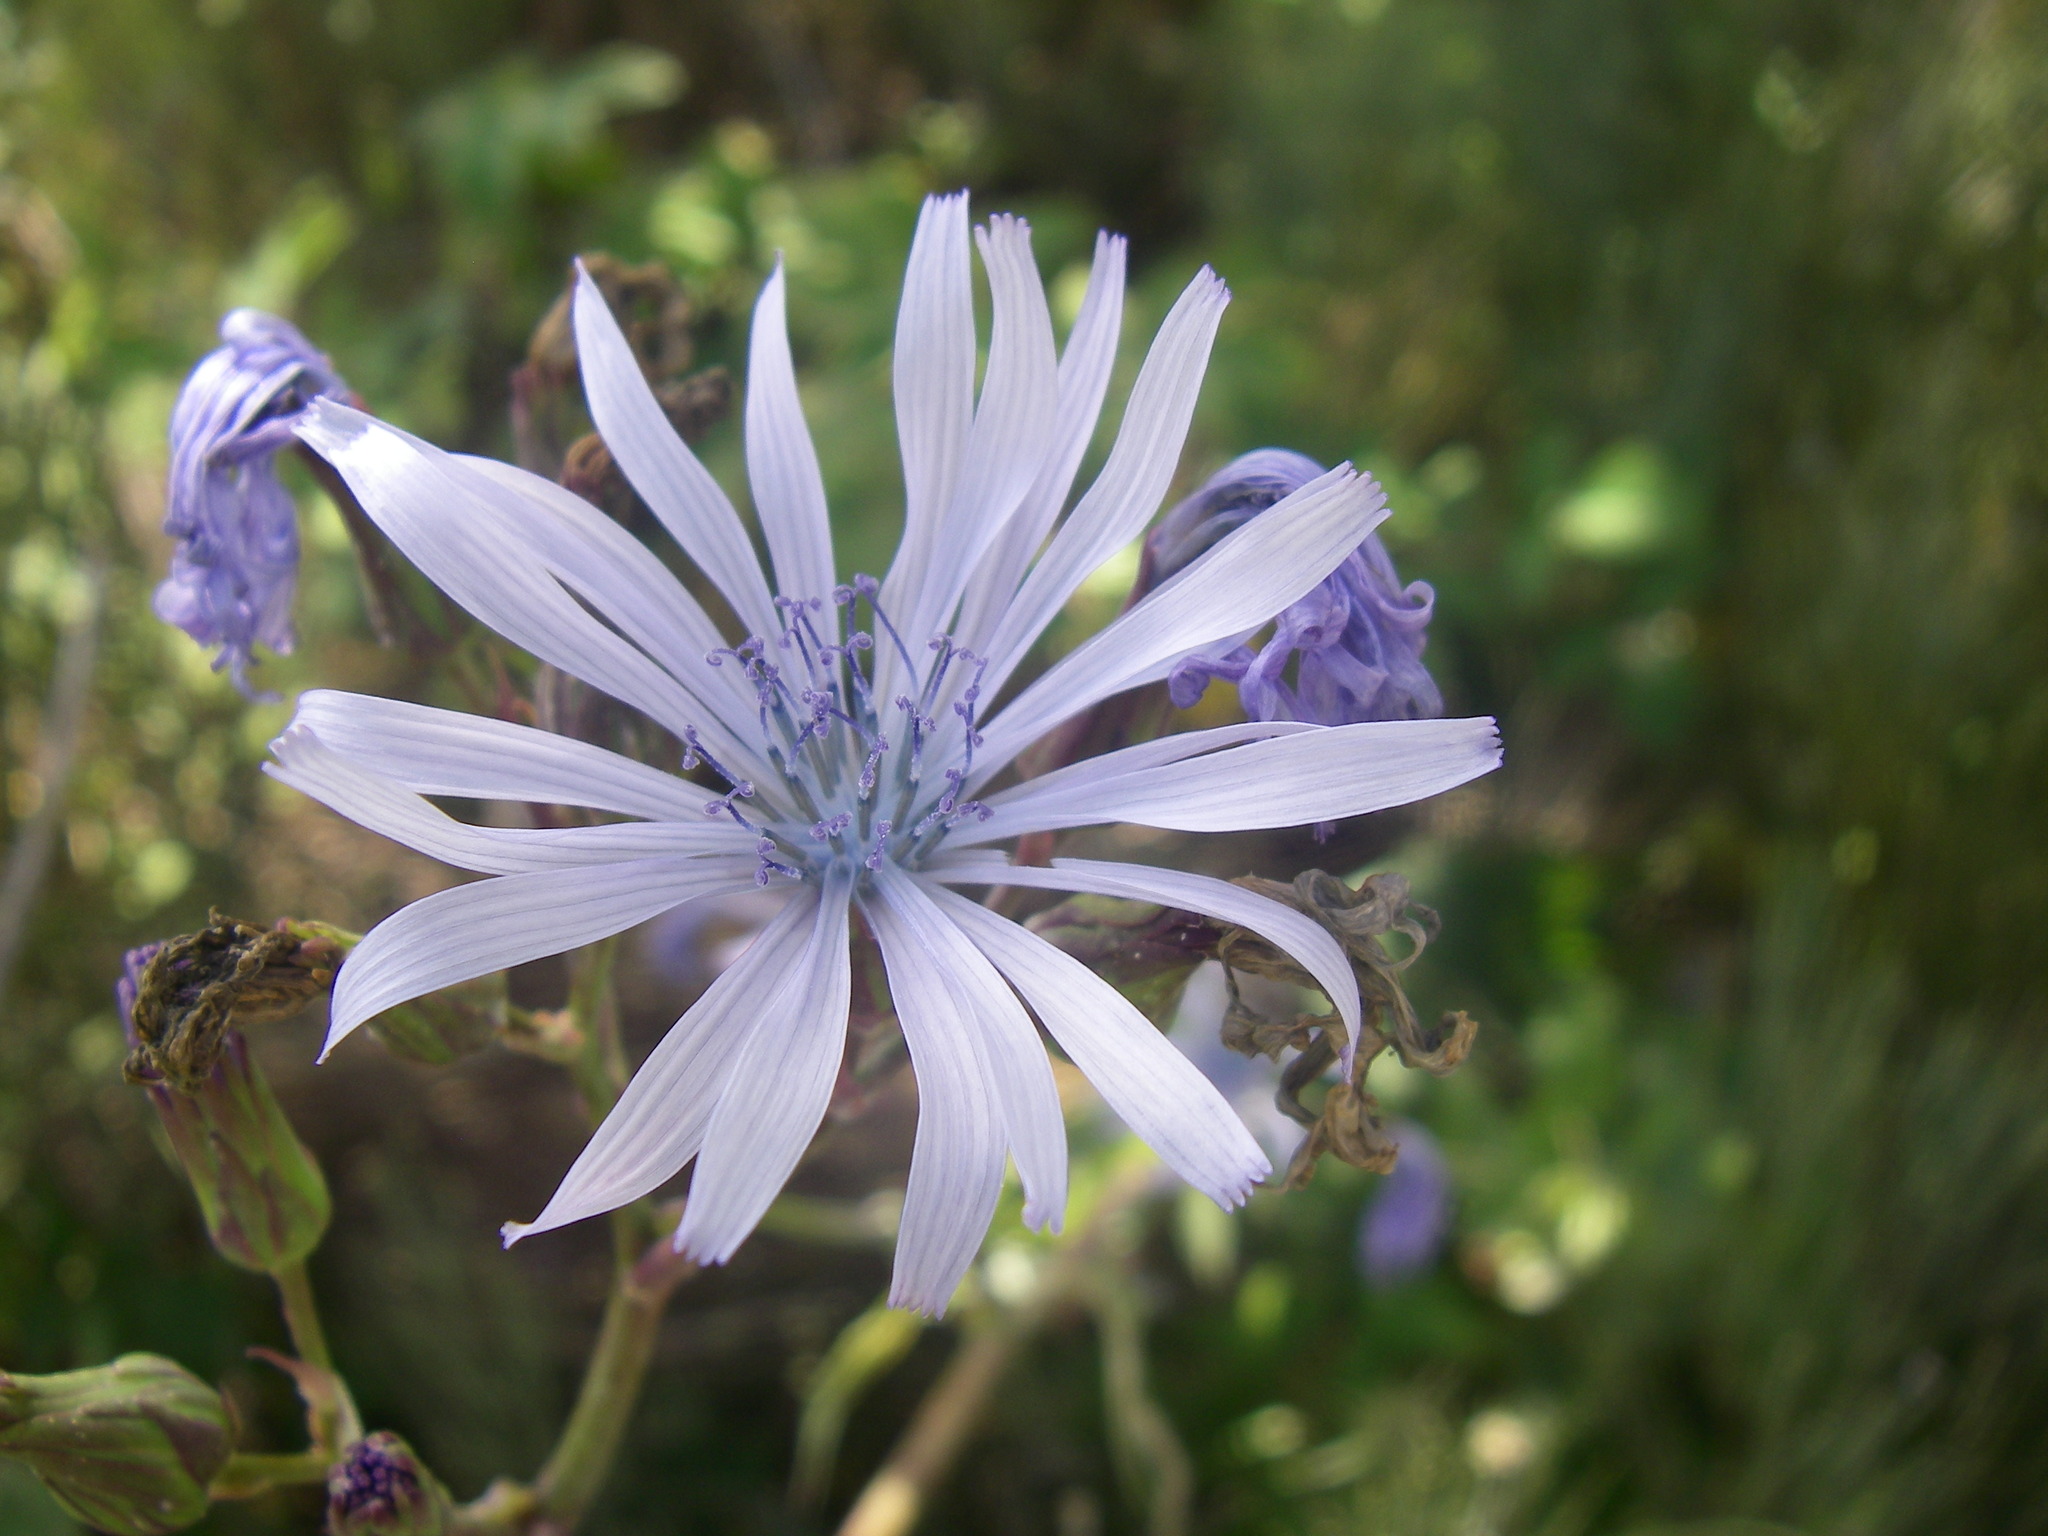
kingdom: Plantae
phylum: Tracheophyta
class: Magnoliopsida
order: Asterales
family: Asteraceae
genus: Lactuca
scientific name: Lactuca plumieri
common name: Hairless blue-sow-thistle
